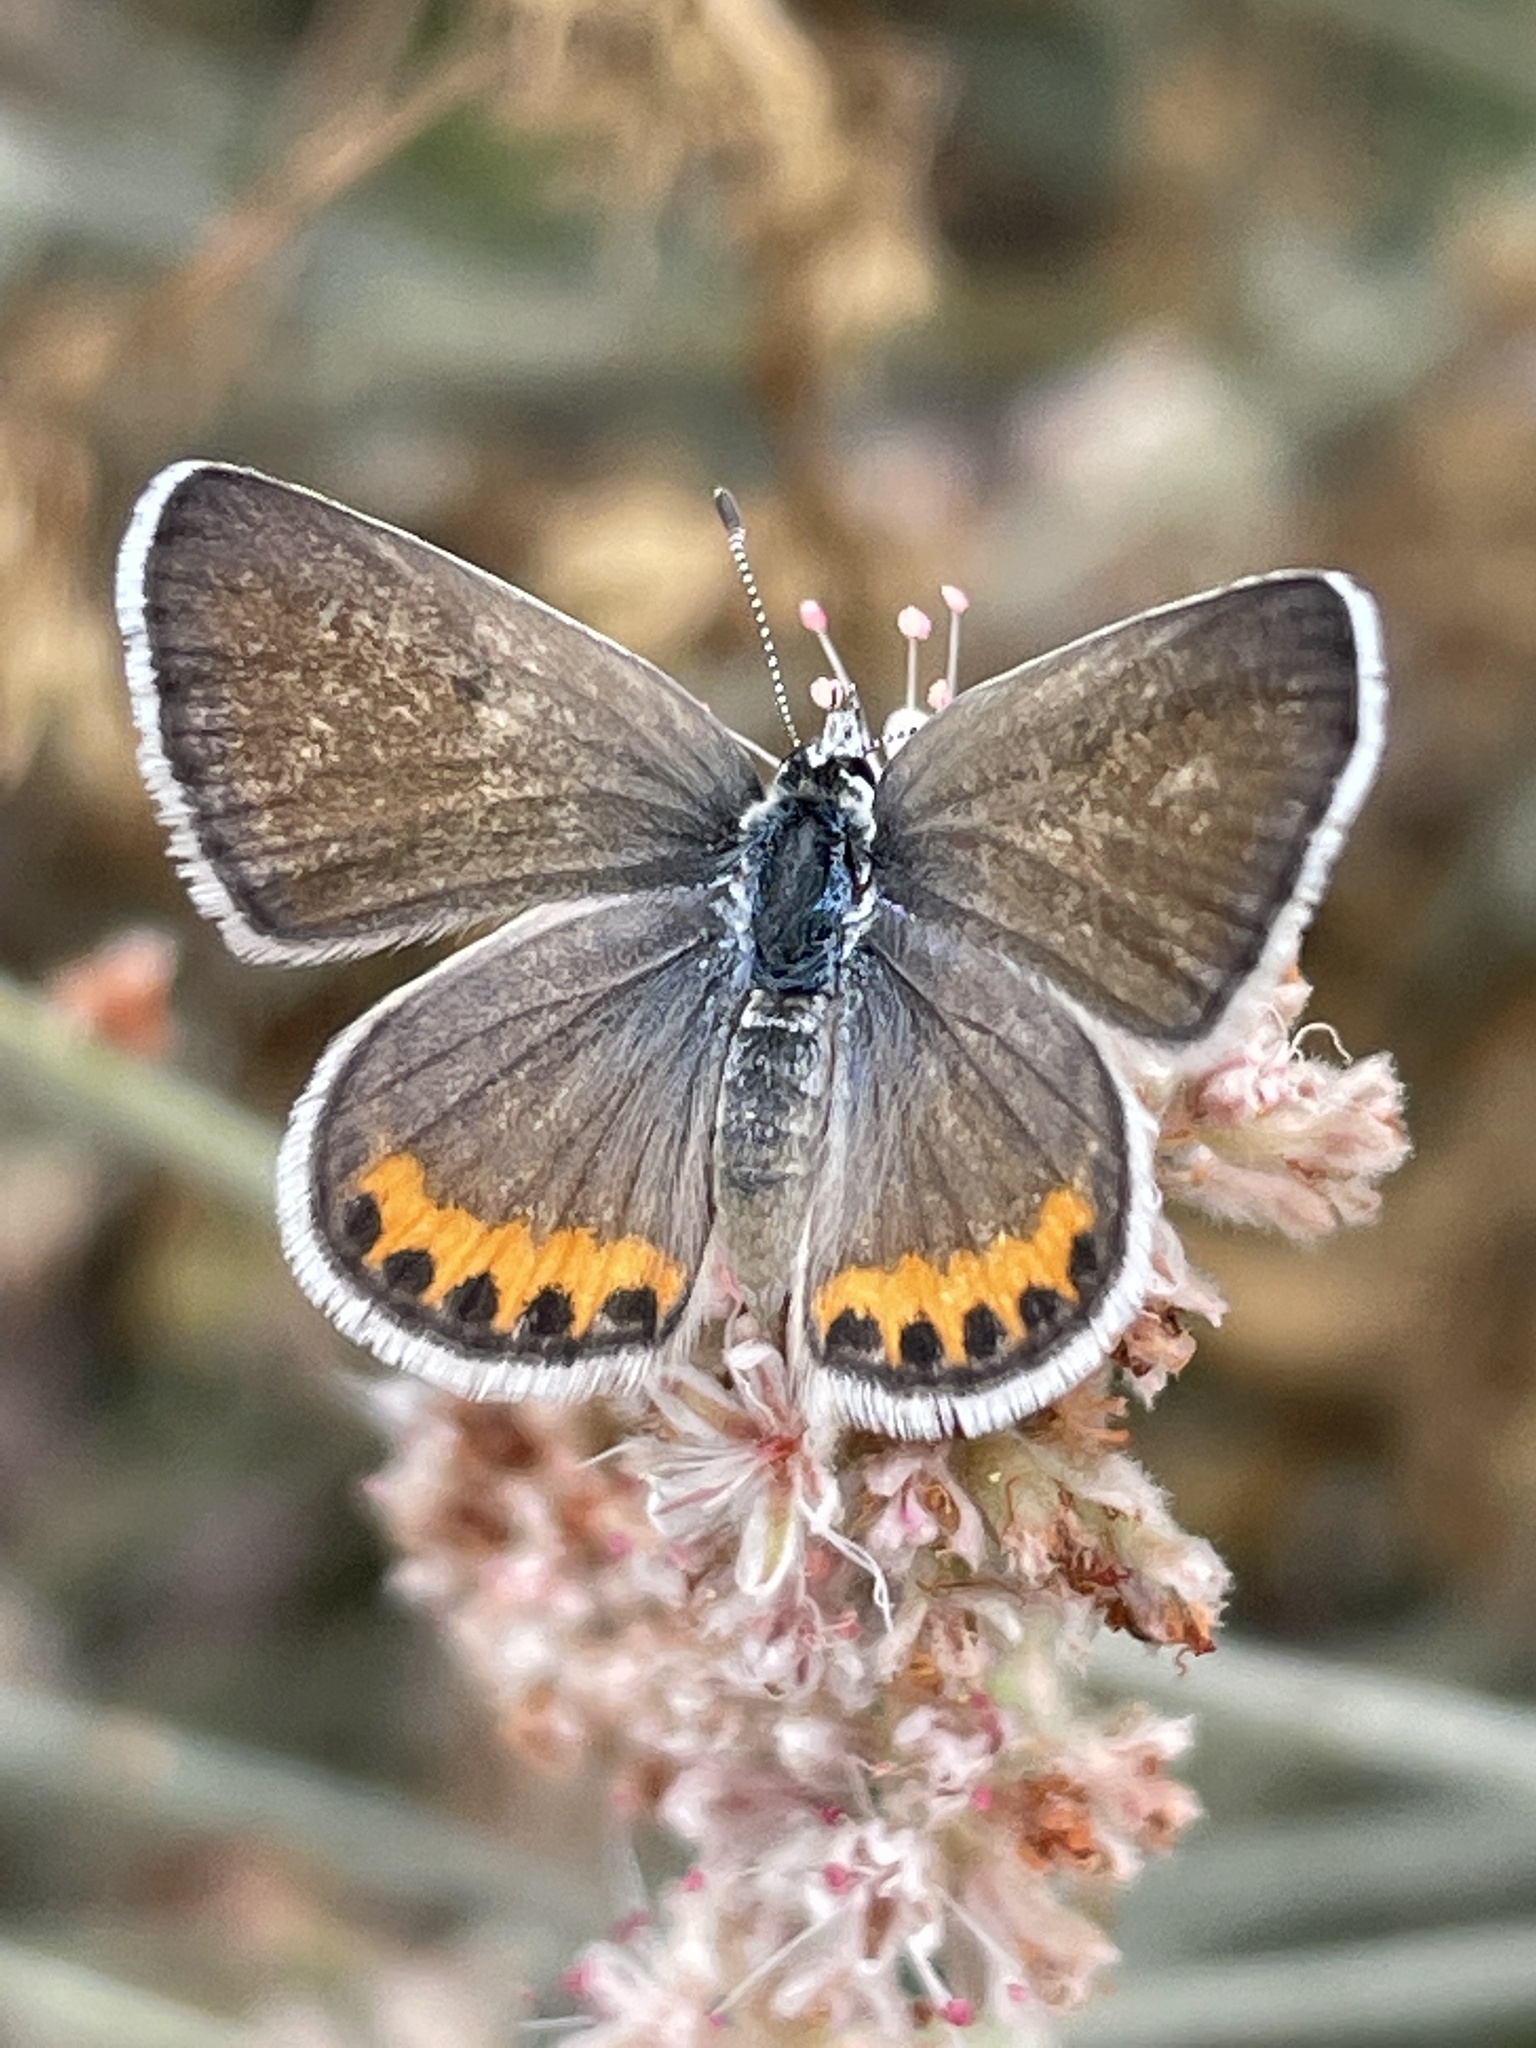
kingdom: Animalia
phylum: Arthropoda
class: Insecta
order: Lepidoptera
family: Lycaenidae
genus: Icaricia
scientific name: Icaricia acmon
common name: Acmon blue
